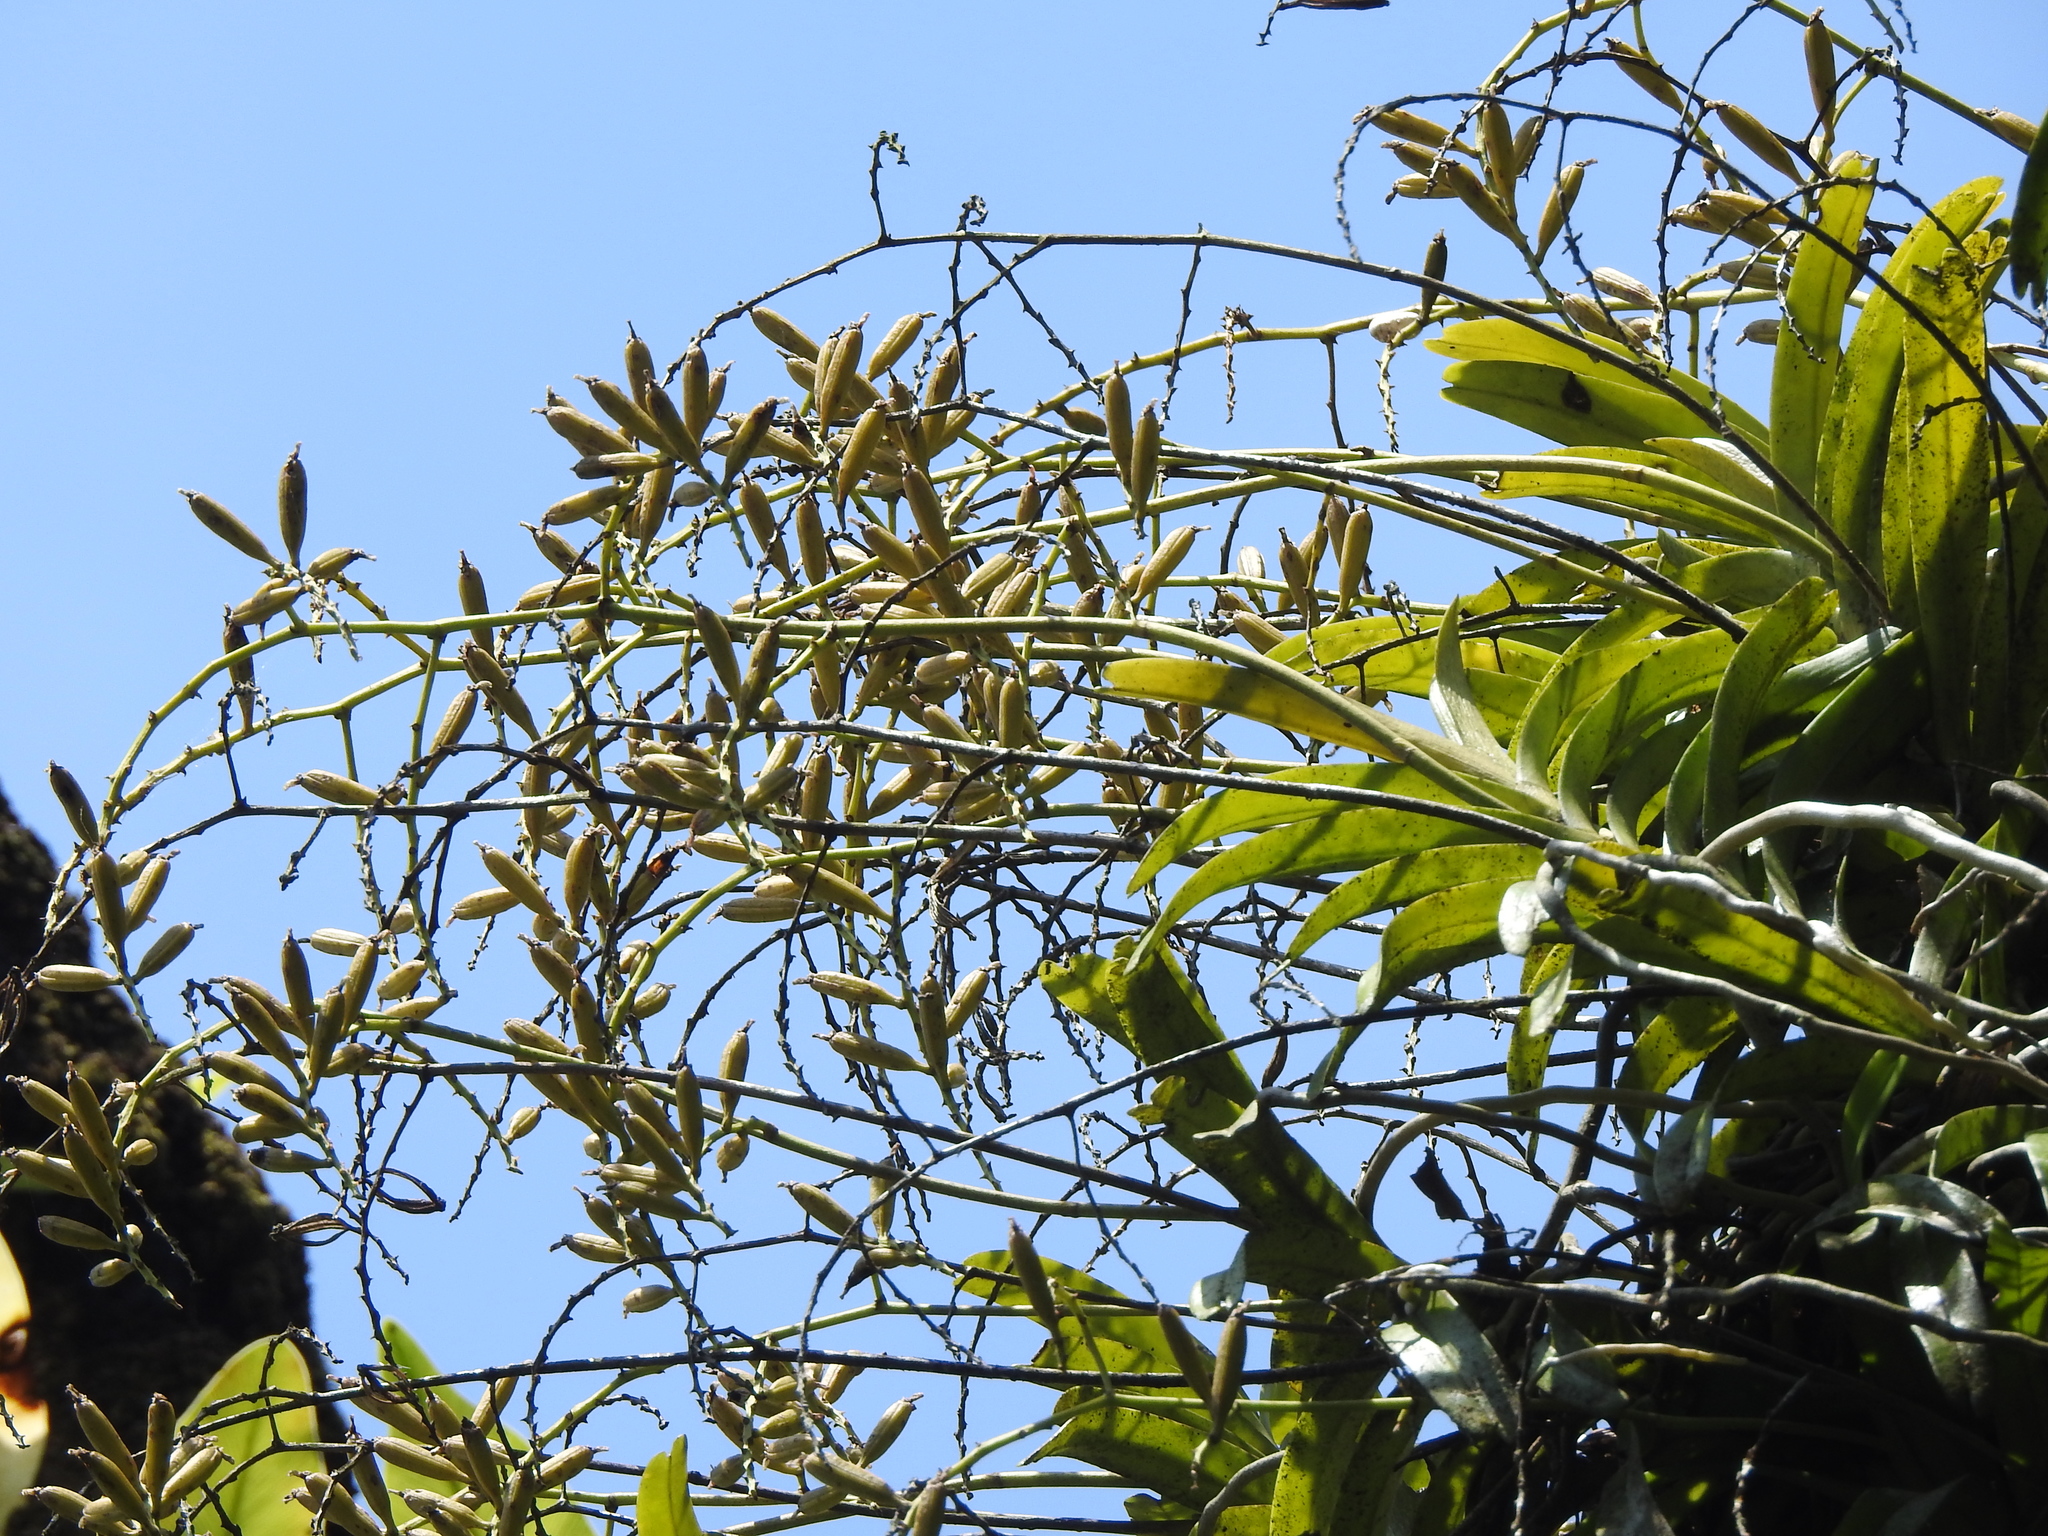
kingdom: Plantae
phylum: Tracheophyta
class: Liliopsida
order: Asparagales
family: Orchidaceae
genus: Cleisostoma
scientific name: Cleisostoma paniculatum
